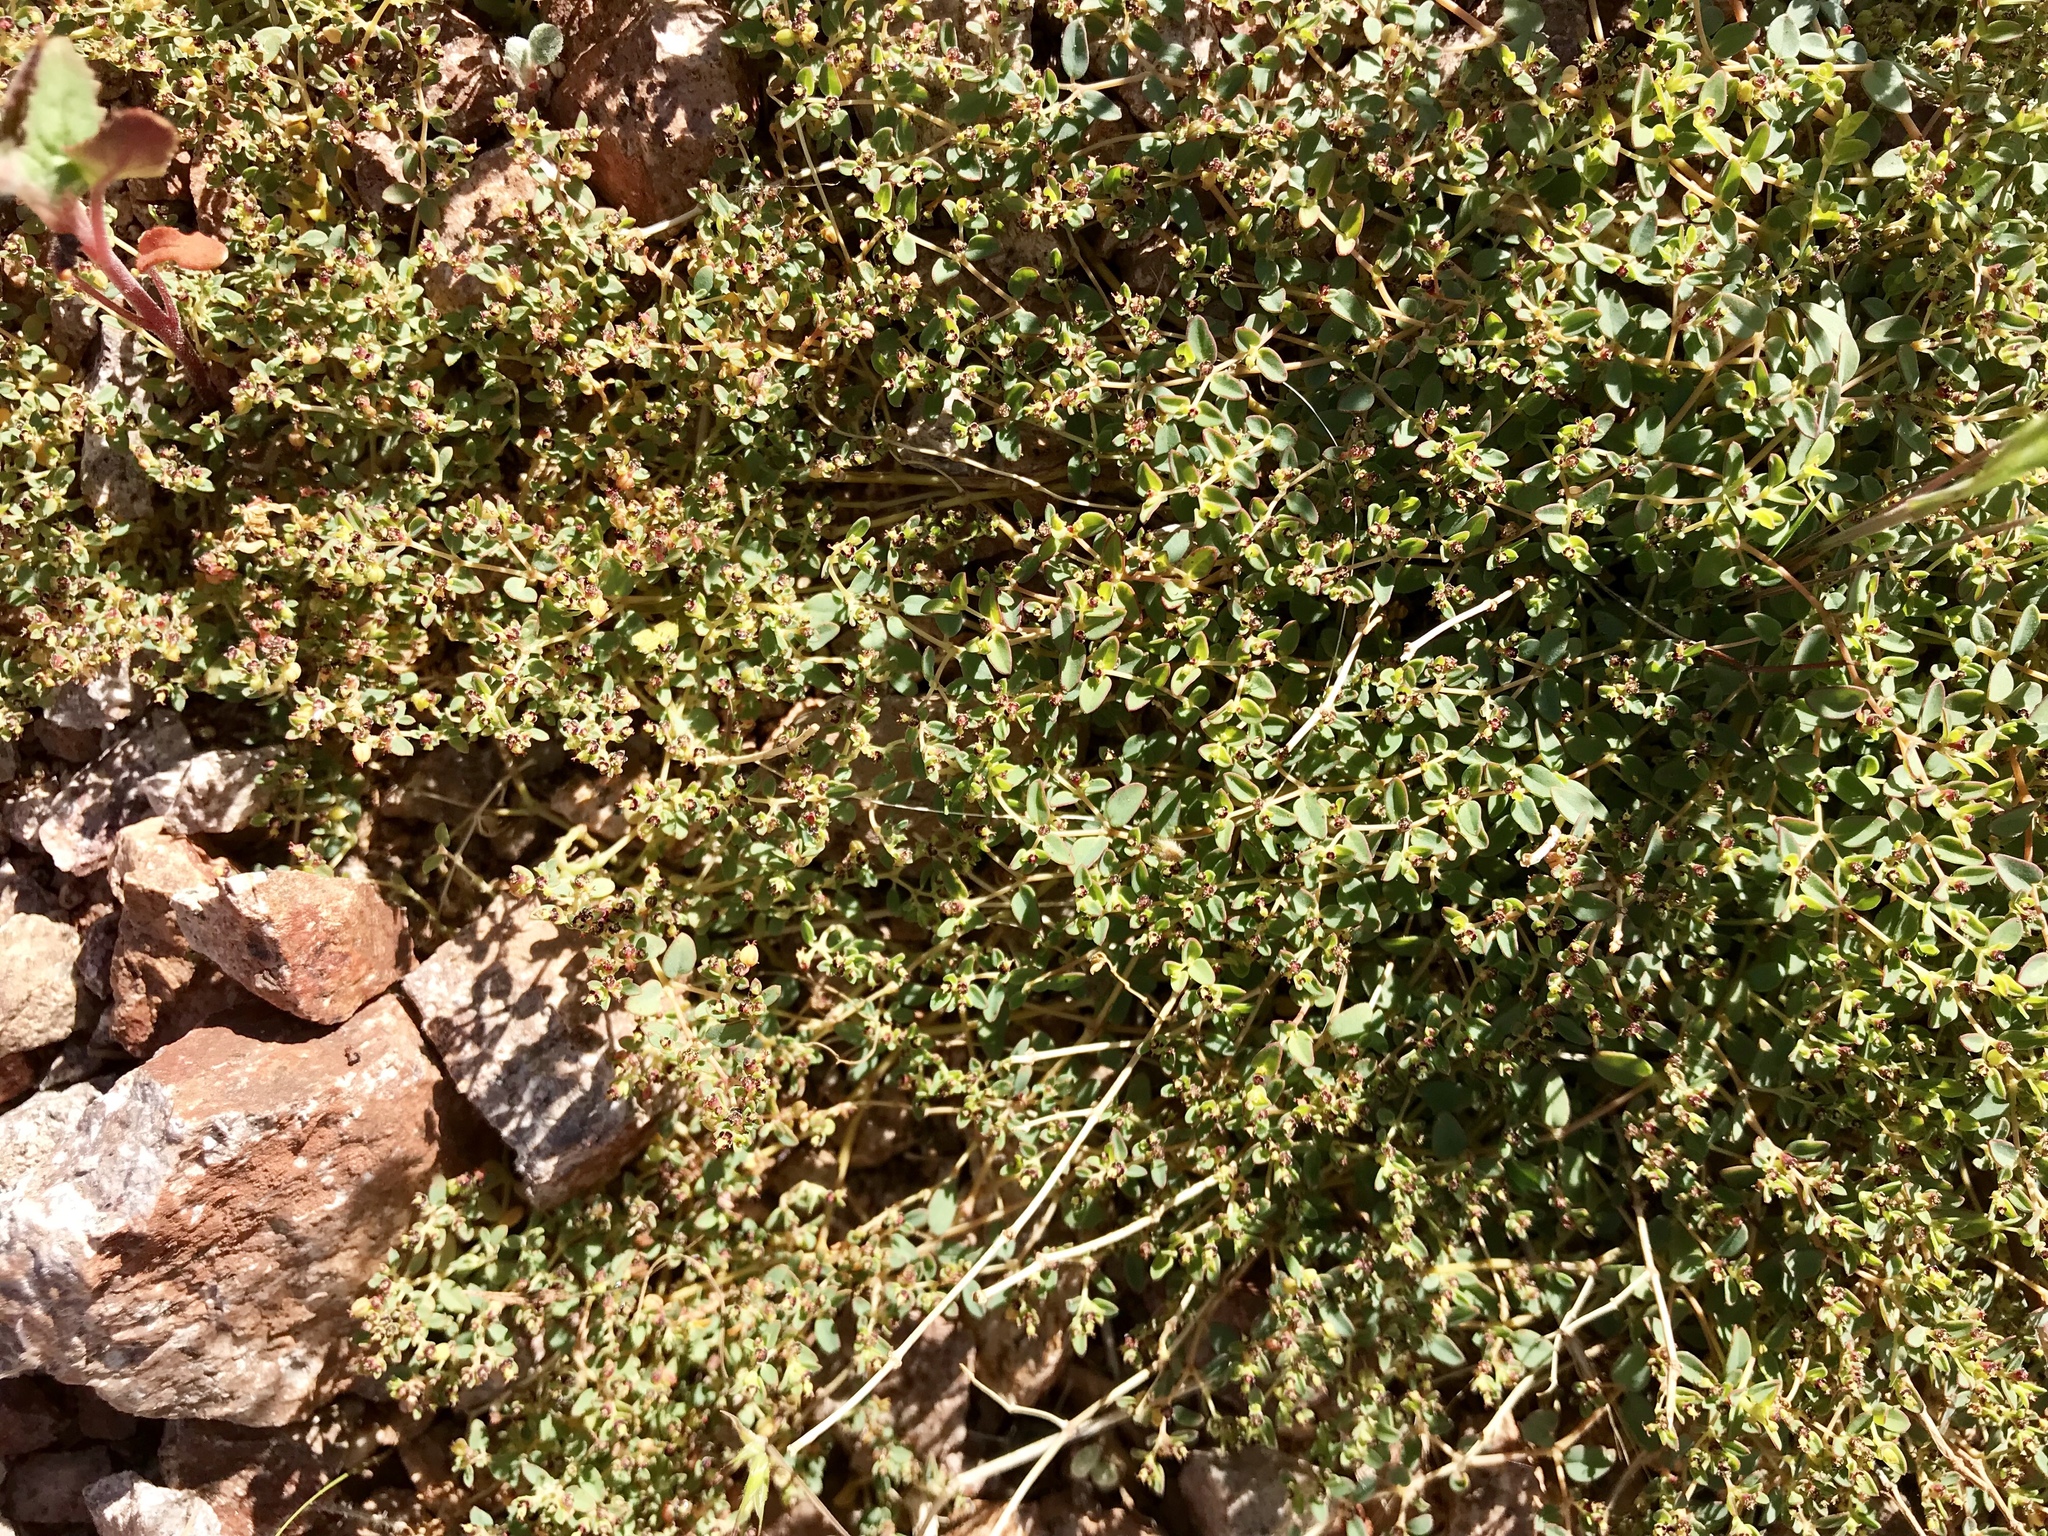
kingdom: Plantae
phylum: Tracheophyta
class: Magnoliopsida
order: Malpighiales
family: Euphorbiaceae
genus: Euphorbia
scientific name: Euphorbia polycarpa
